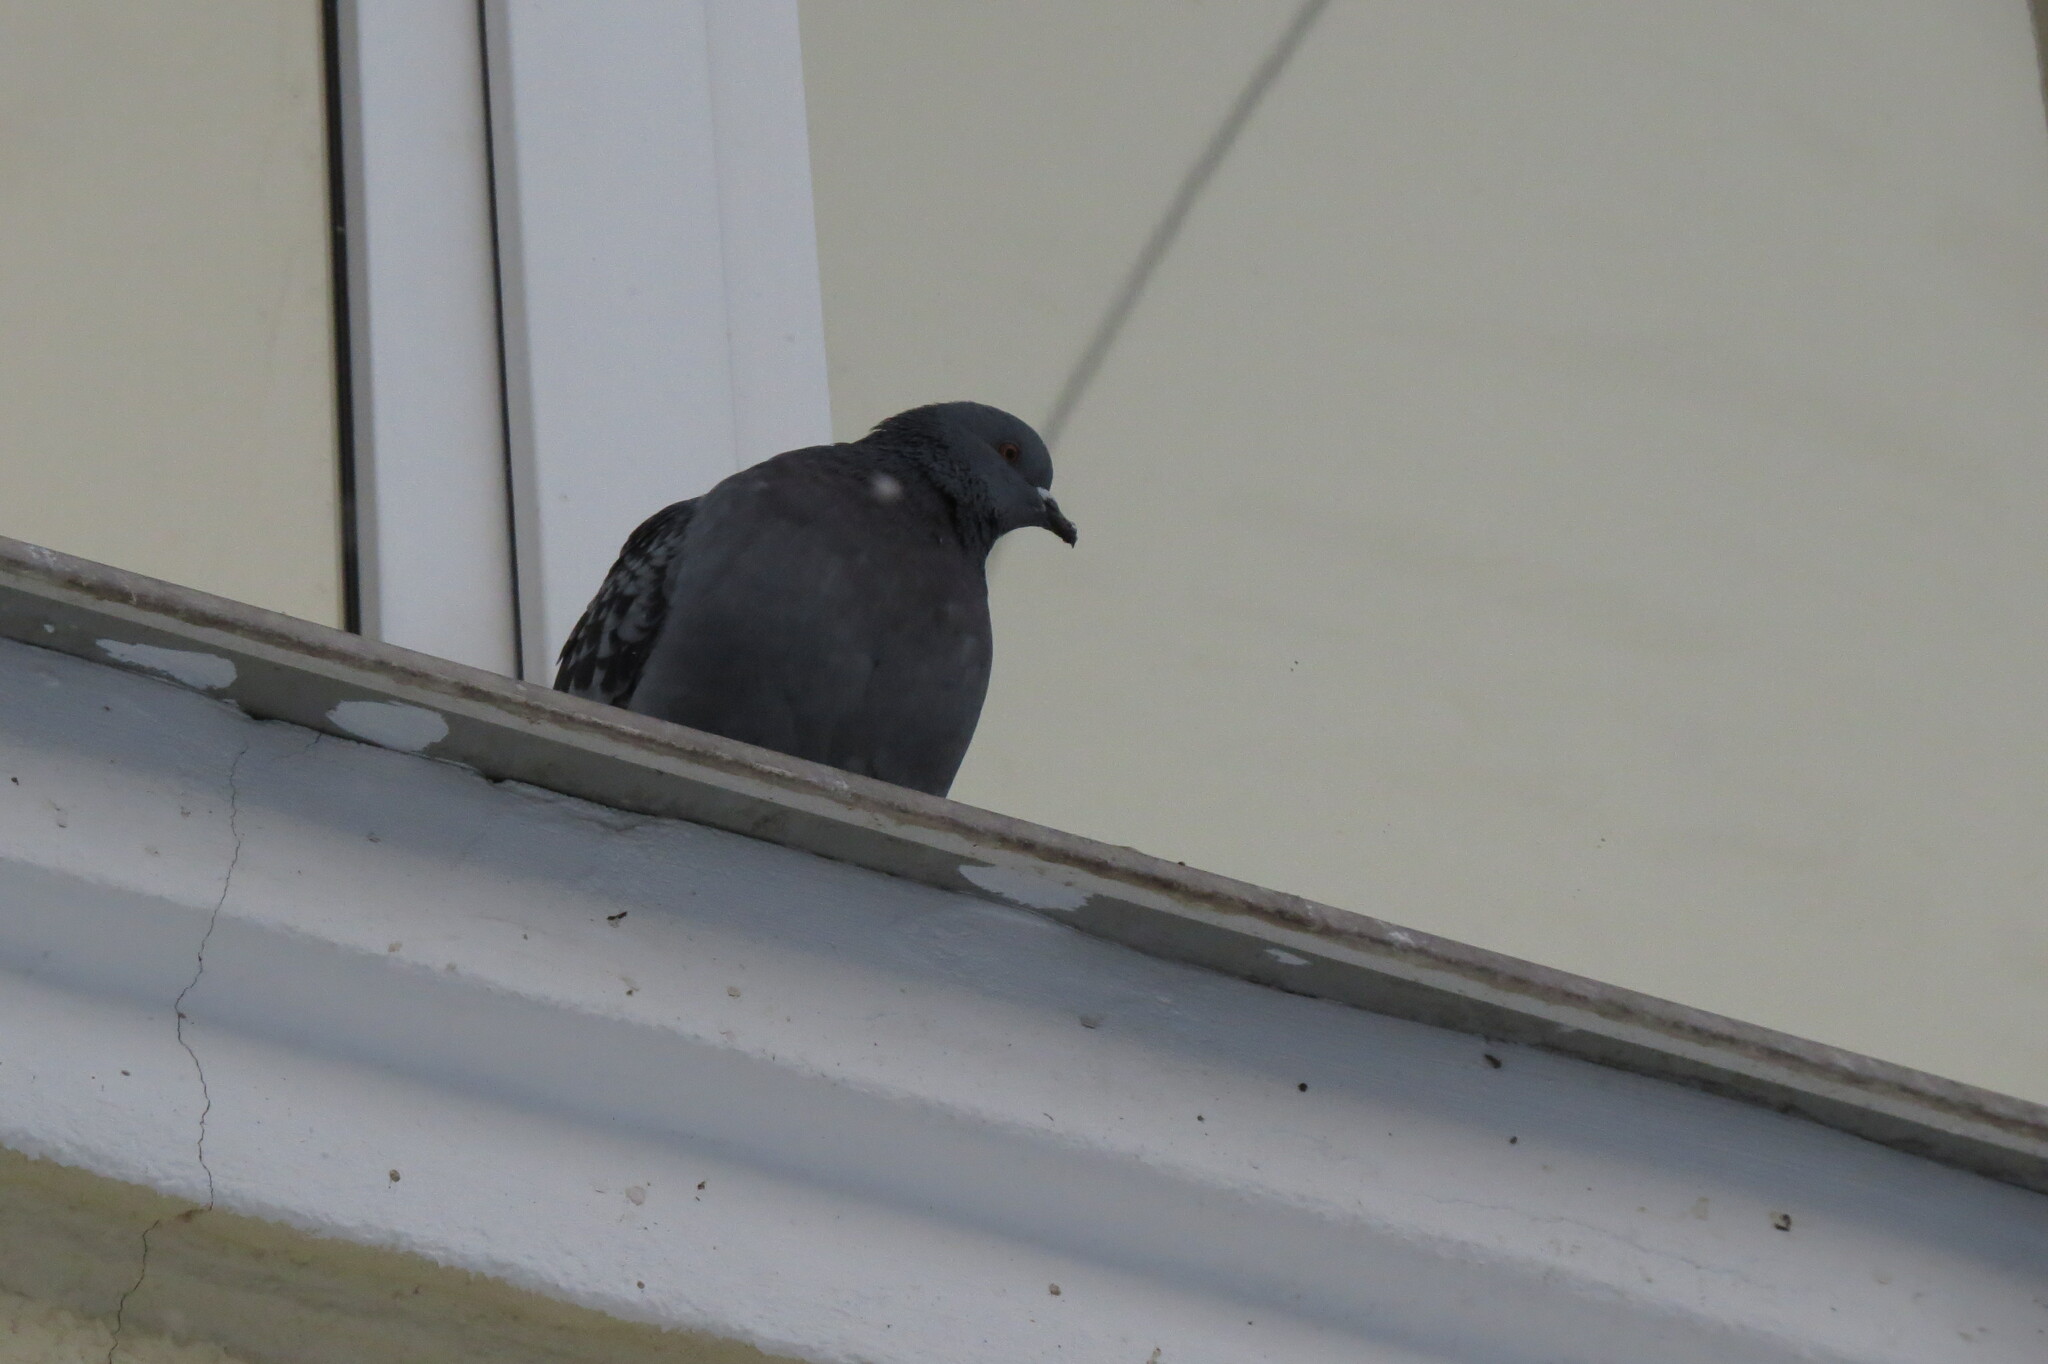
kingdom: Animalia
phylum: Chordata
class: Aves
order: Columbiformes
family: Columbidae
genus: Columba
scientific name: Columba livia
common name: Rock pigeon
